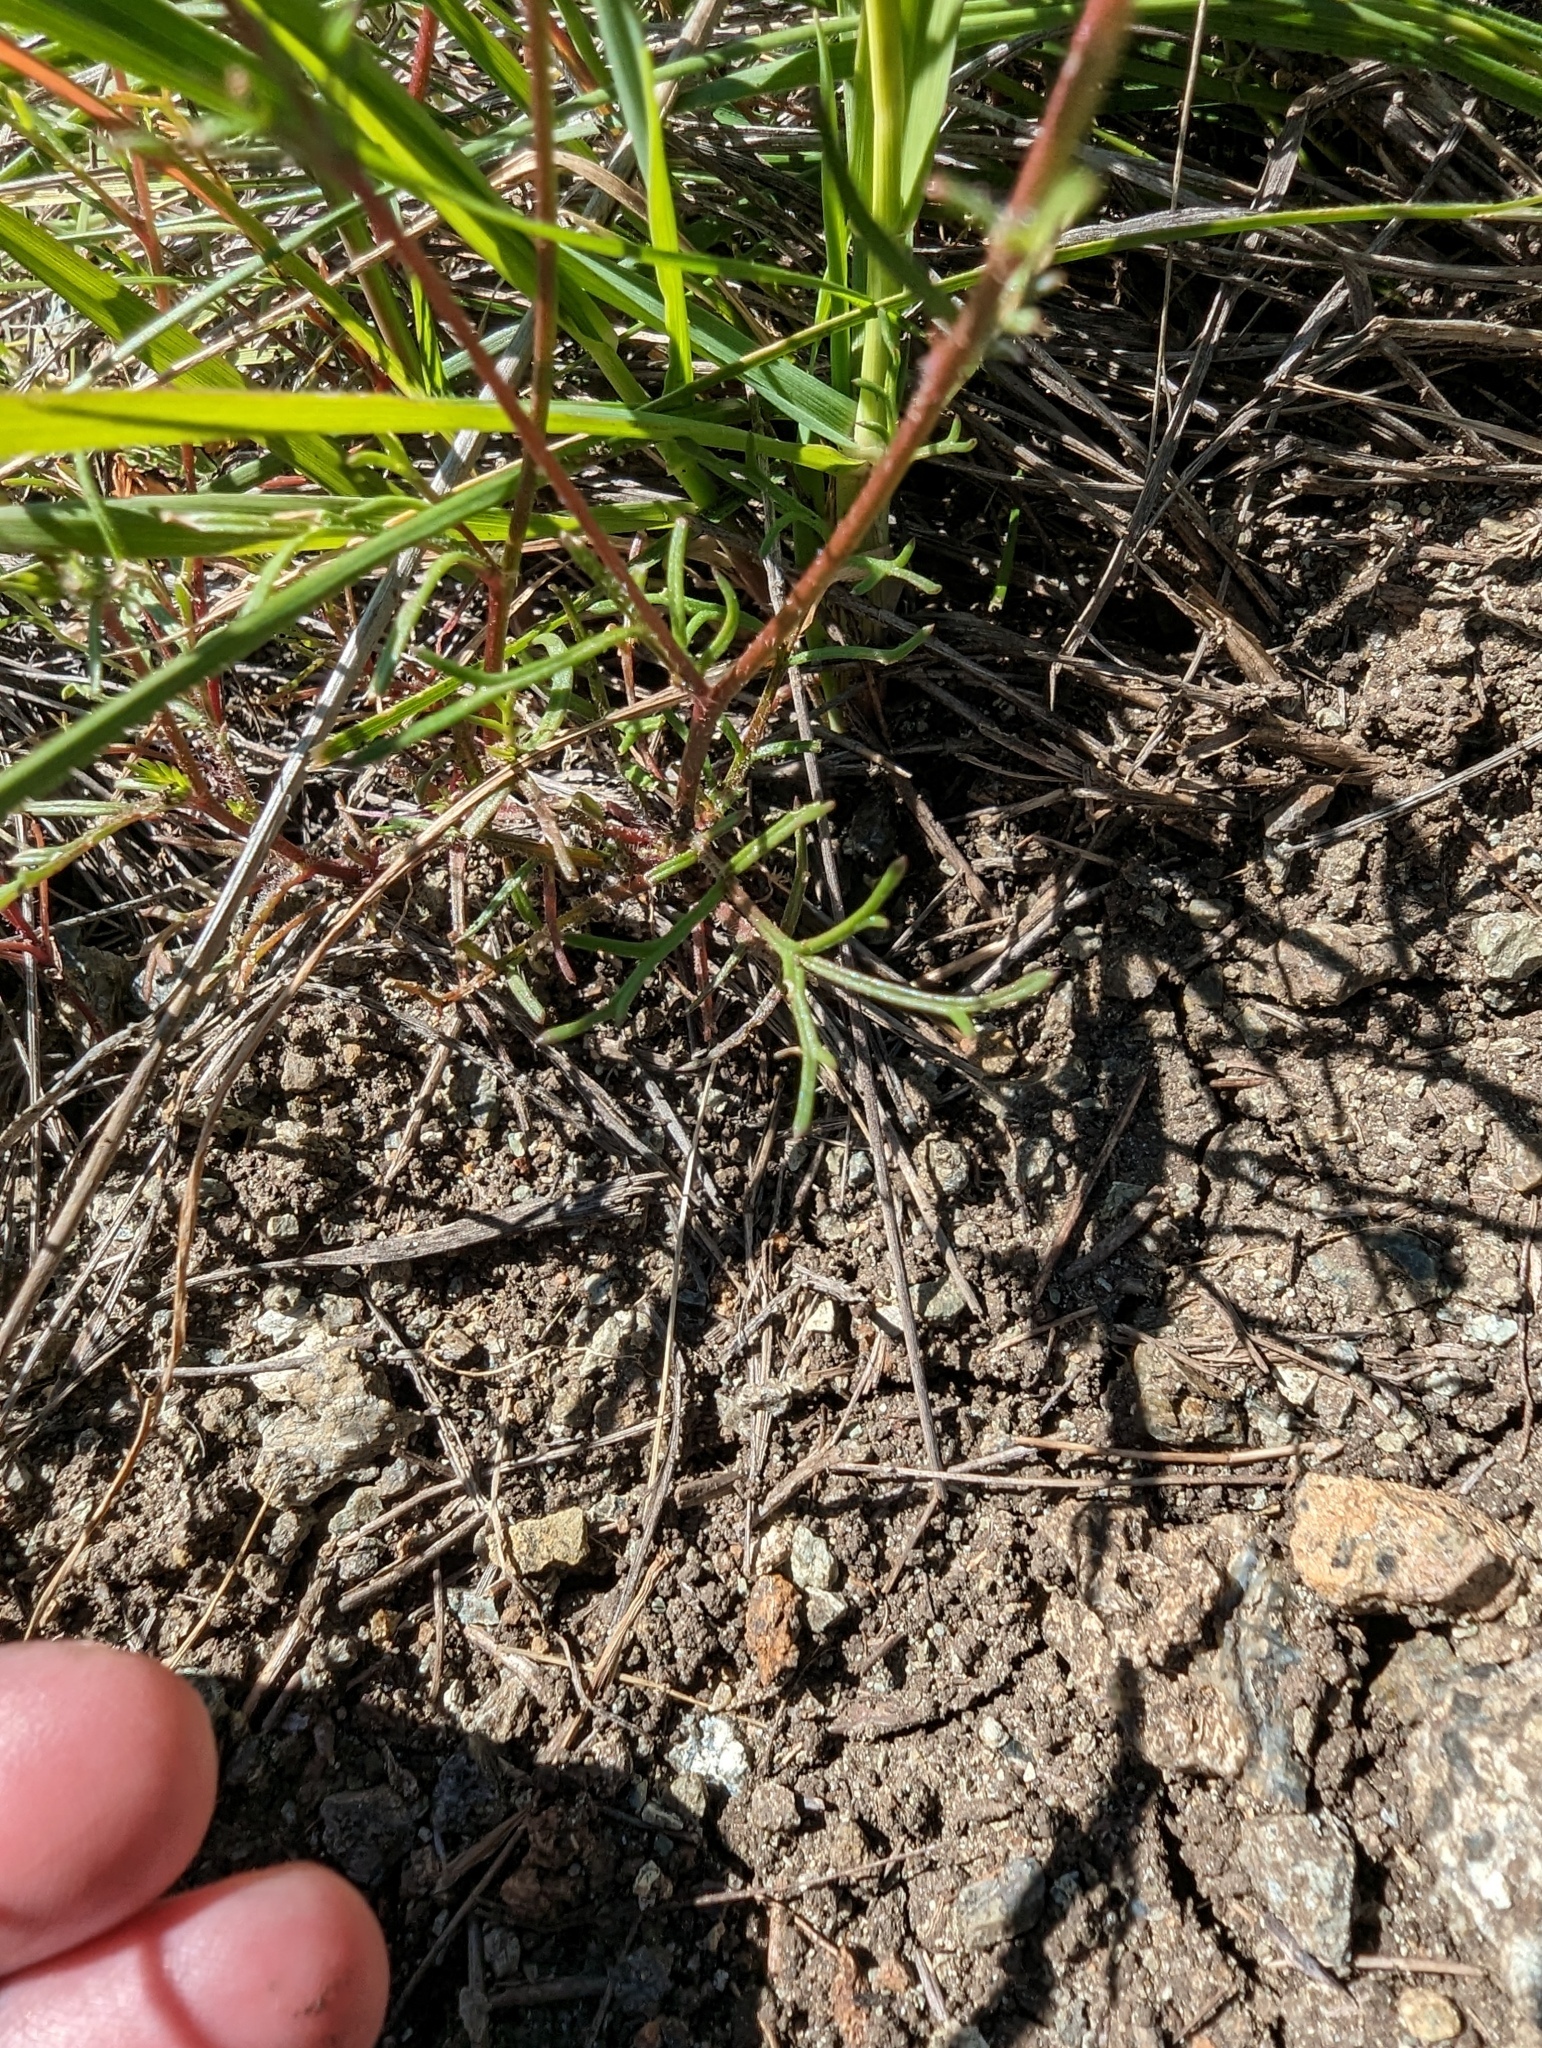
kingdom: Plantae
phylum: Tracheophyta
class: Magnoliopsida
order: Ericales
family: Polemoniaceae
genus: Gilia
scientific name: Gilia achilleifolia
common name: California gily-flower
